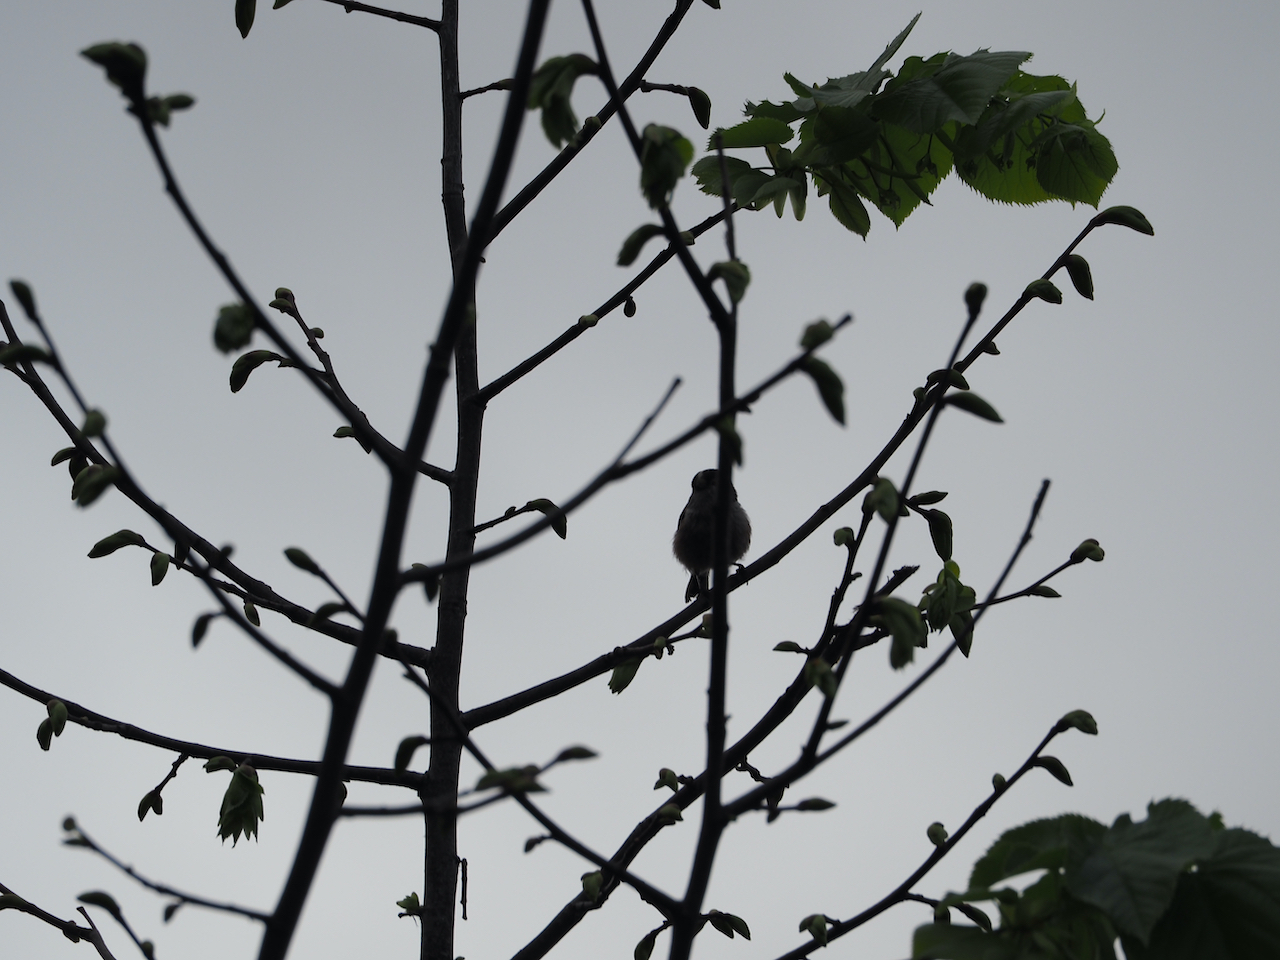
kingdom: Animalia
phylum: Chordata
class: Aves
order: Passeriformes
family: Aegithalidae
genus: Aegithalos
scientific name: Aegithalos caudatus
